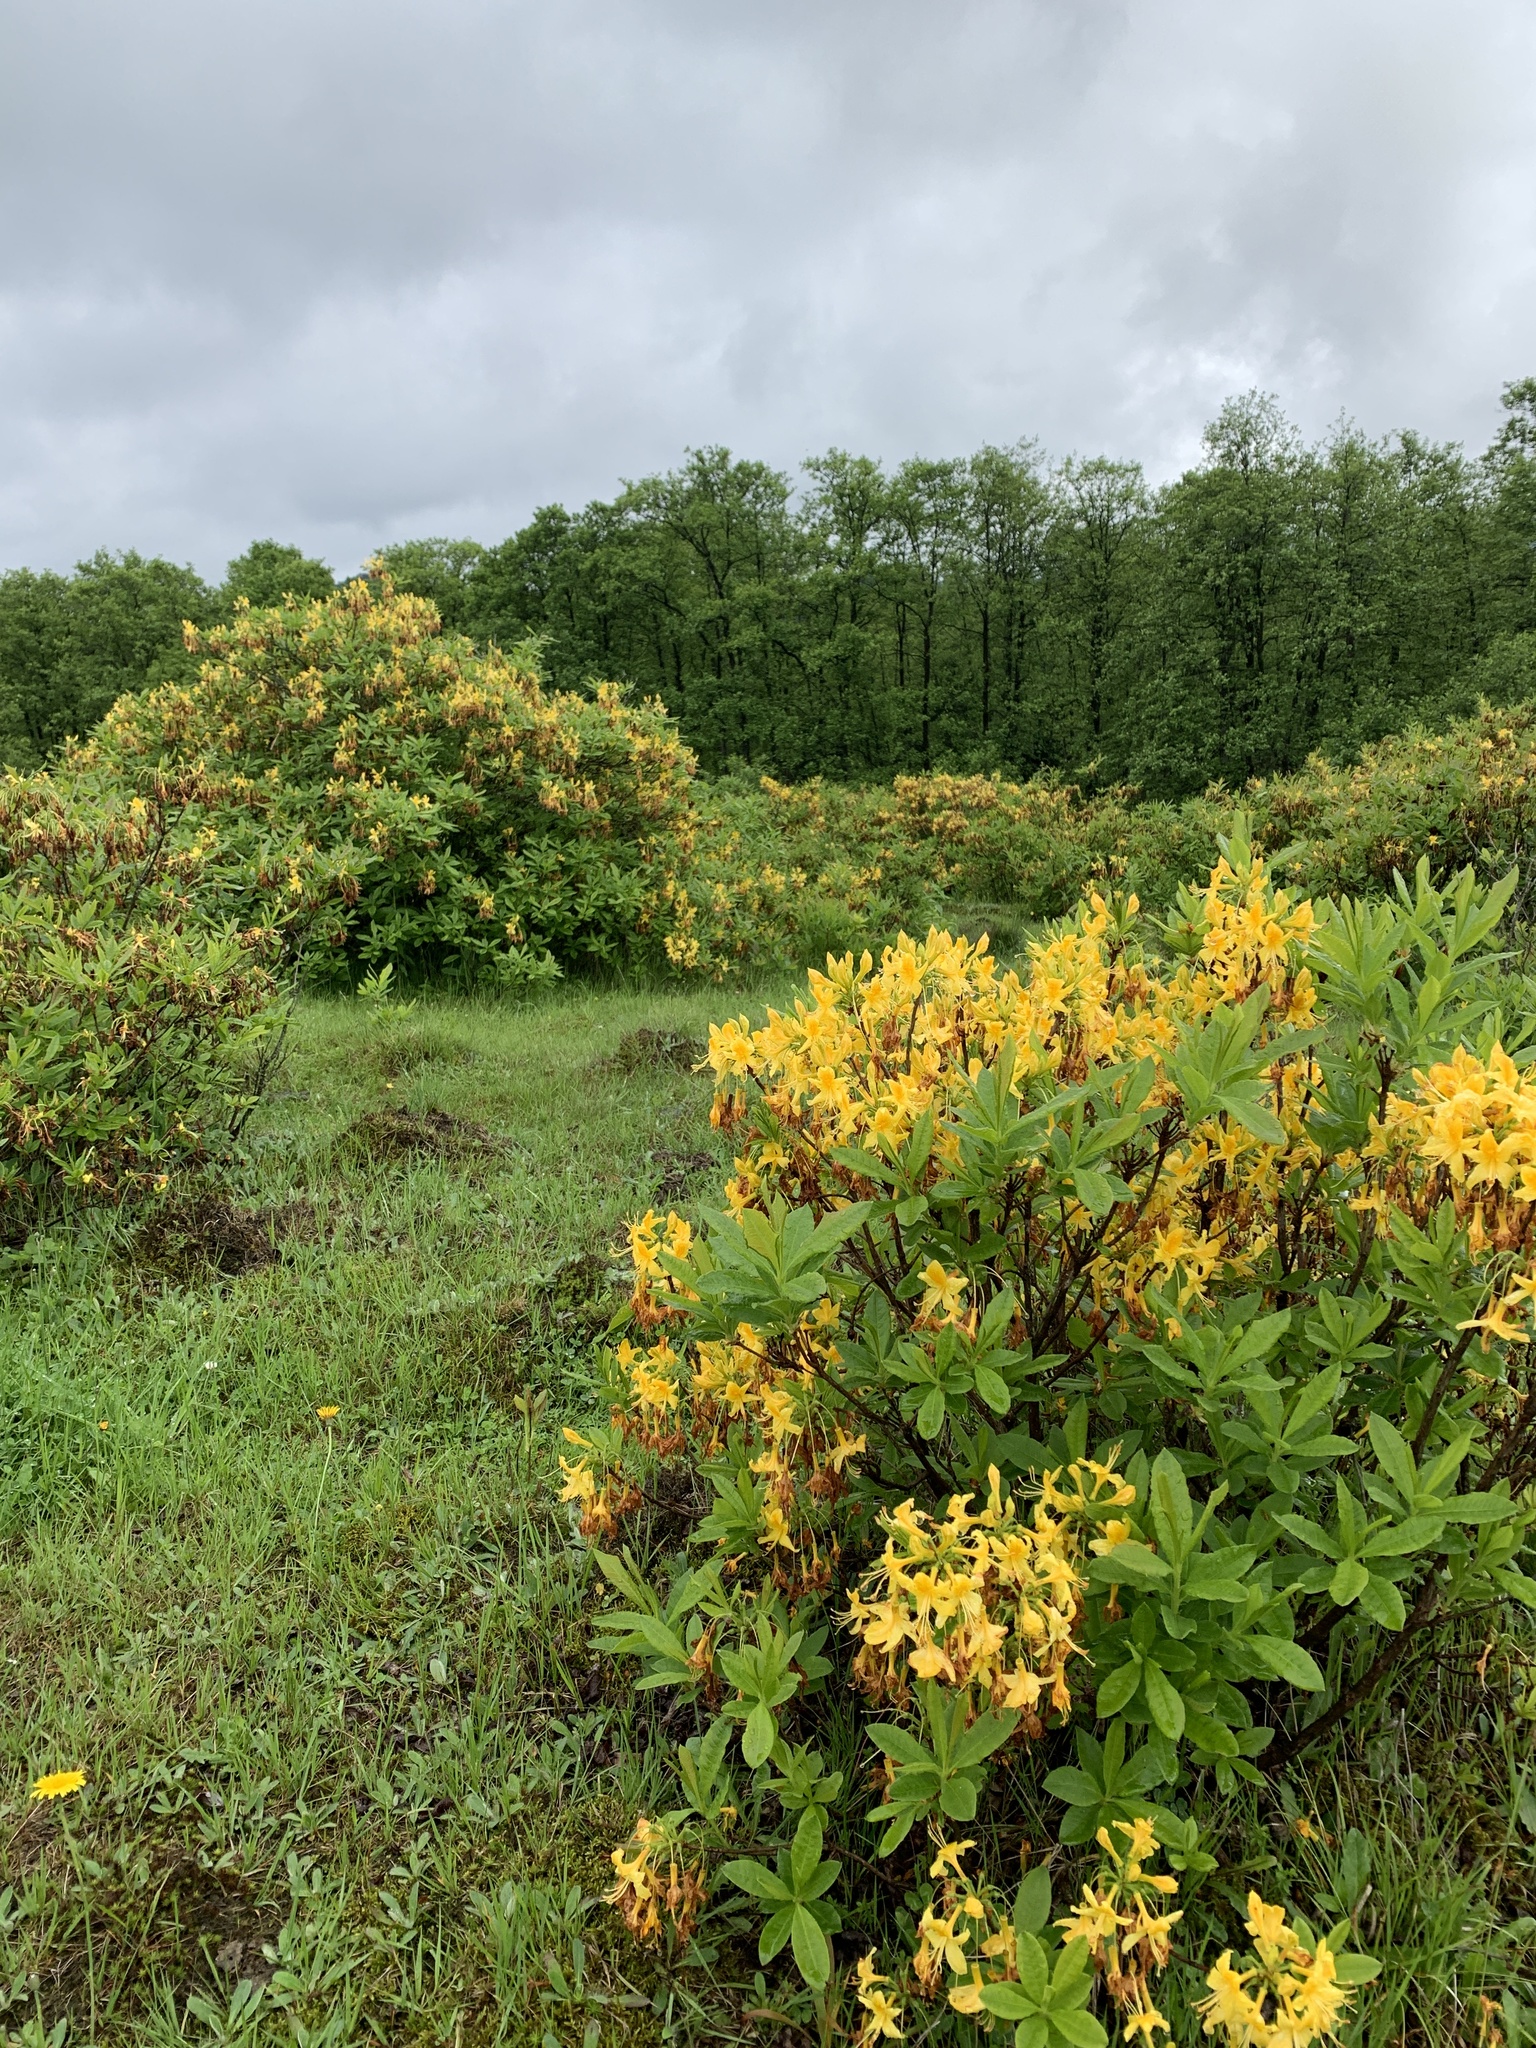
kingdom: Plantae
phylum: Tracheophyta
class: Magnoliopsida
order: Ericales
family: Ericaceae
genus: Rhododendron
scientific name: Rhododendron luteum
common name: Yellow azalea
